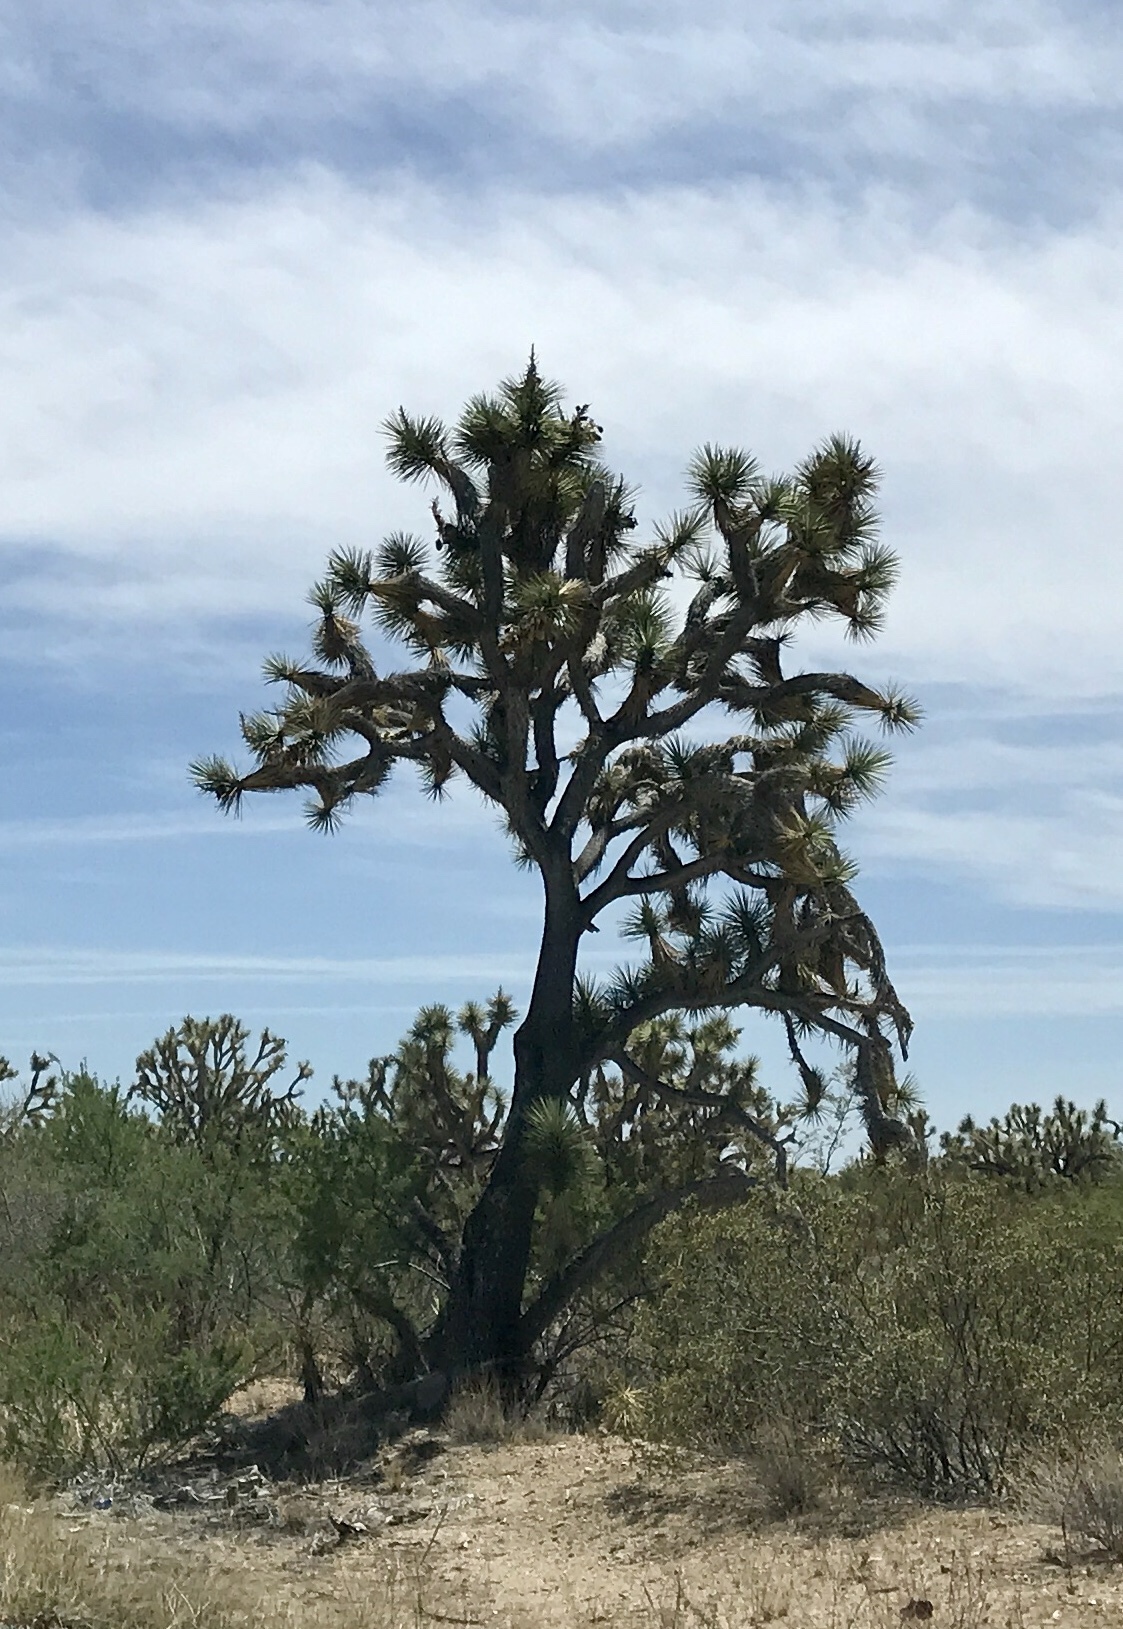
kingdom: Plantae
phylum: Tracheophyta
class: Liliopsida
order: Asparagales
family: Asparagaceae
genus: Yucca
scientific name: Yucca brevifolia
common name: Joshua tree
